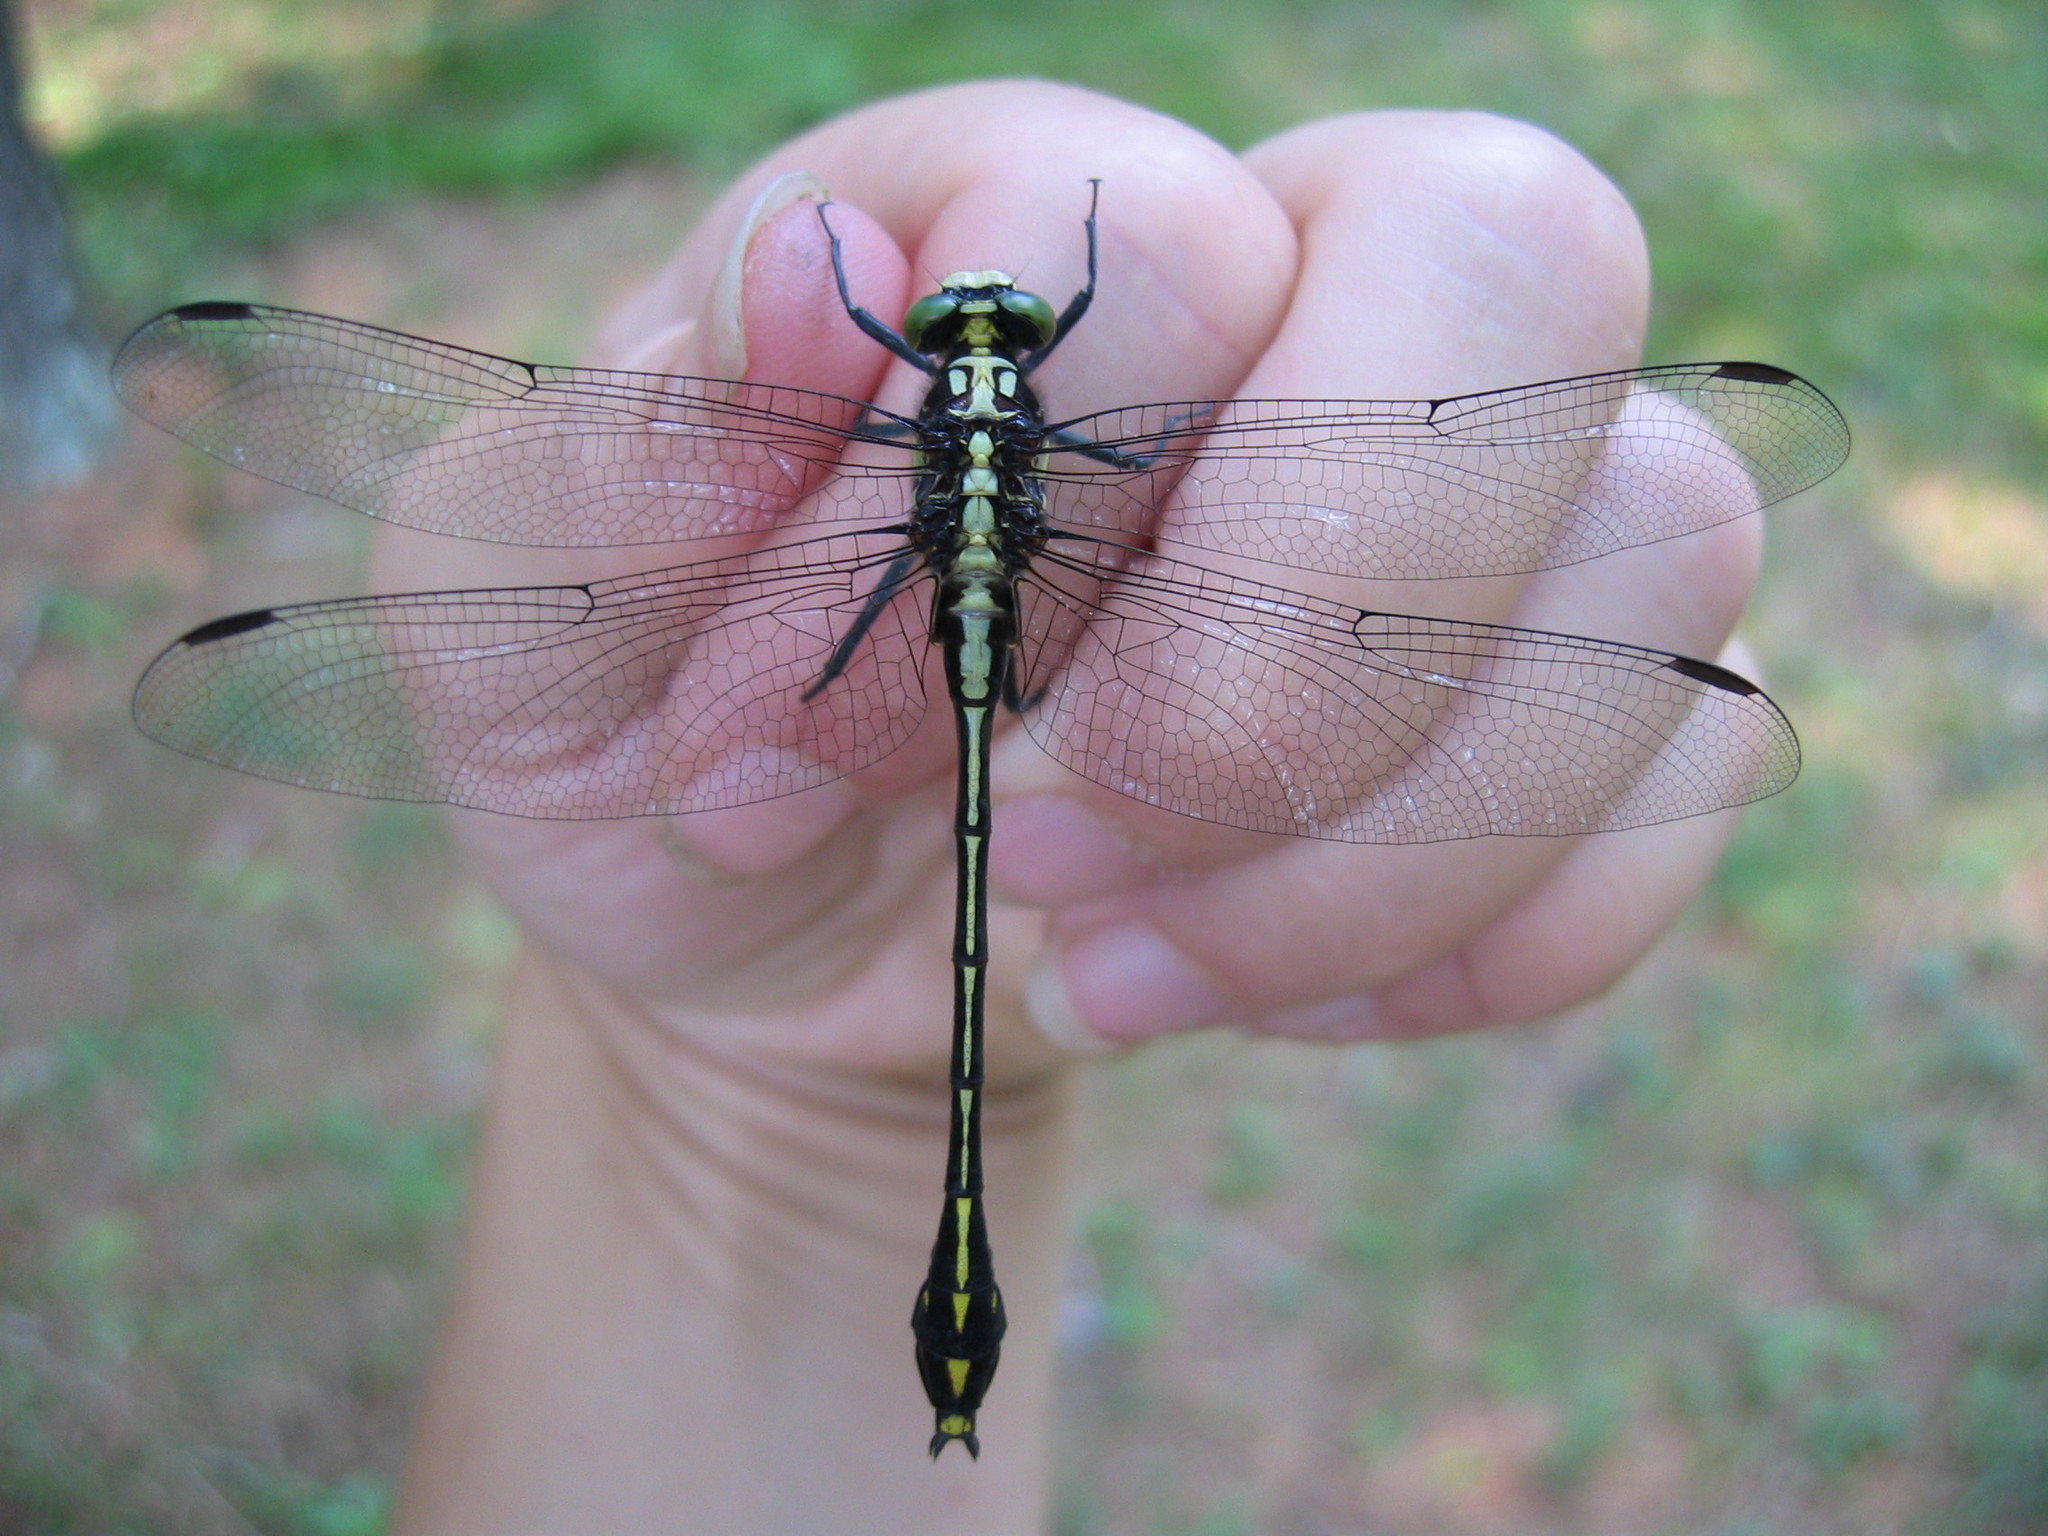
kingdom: Animalia
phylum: Arthropoda
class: Insecta
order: Odonata
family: Gomphidae
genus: Dromogomphus
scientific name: Dromogomphus spinosus
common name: Black-shouldered spinyleg
